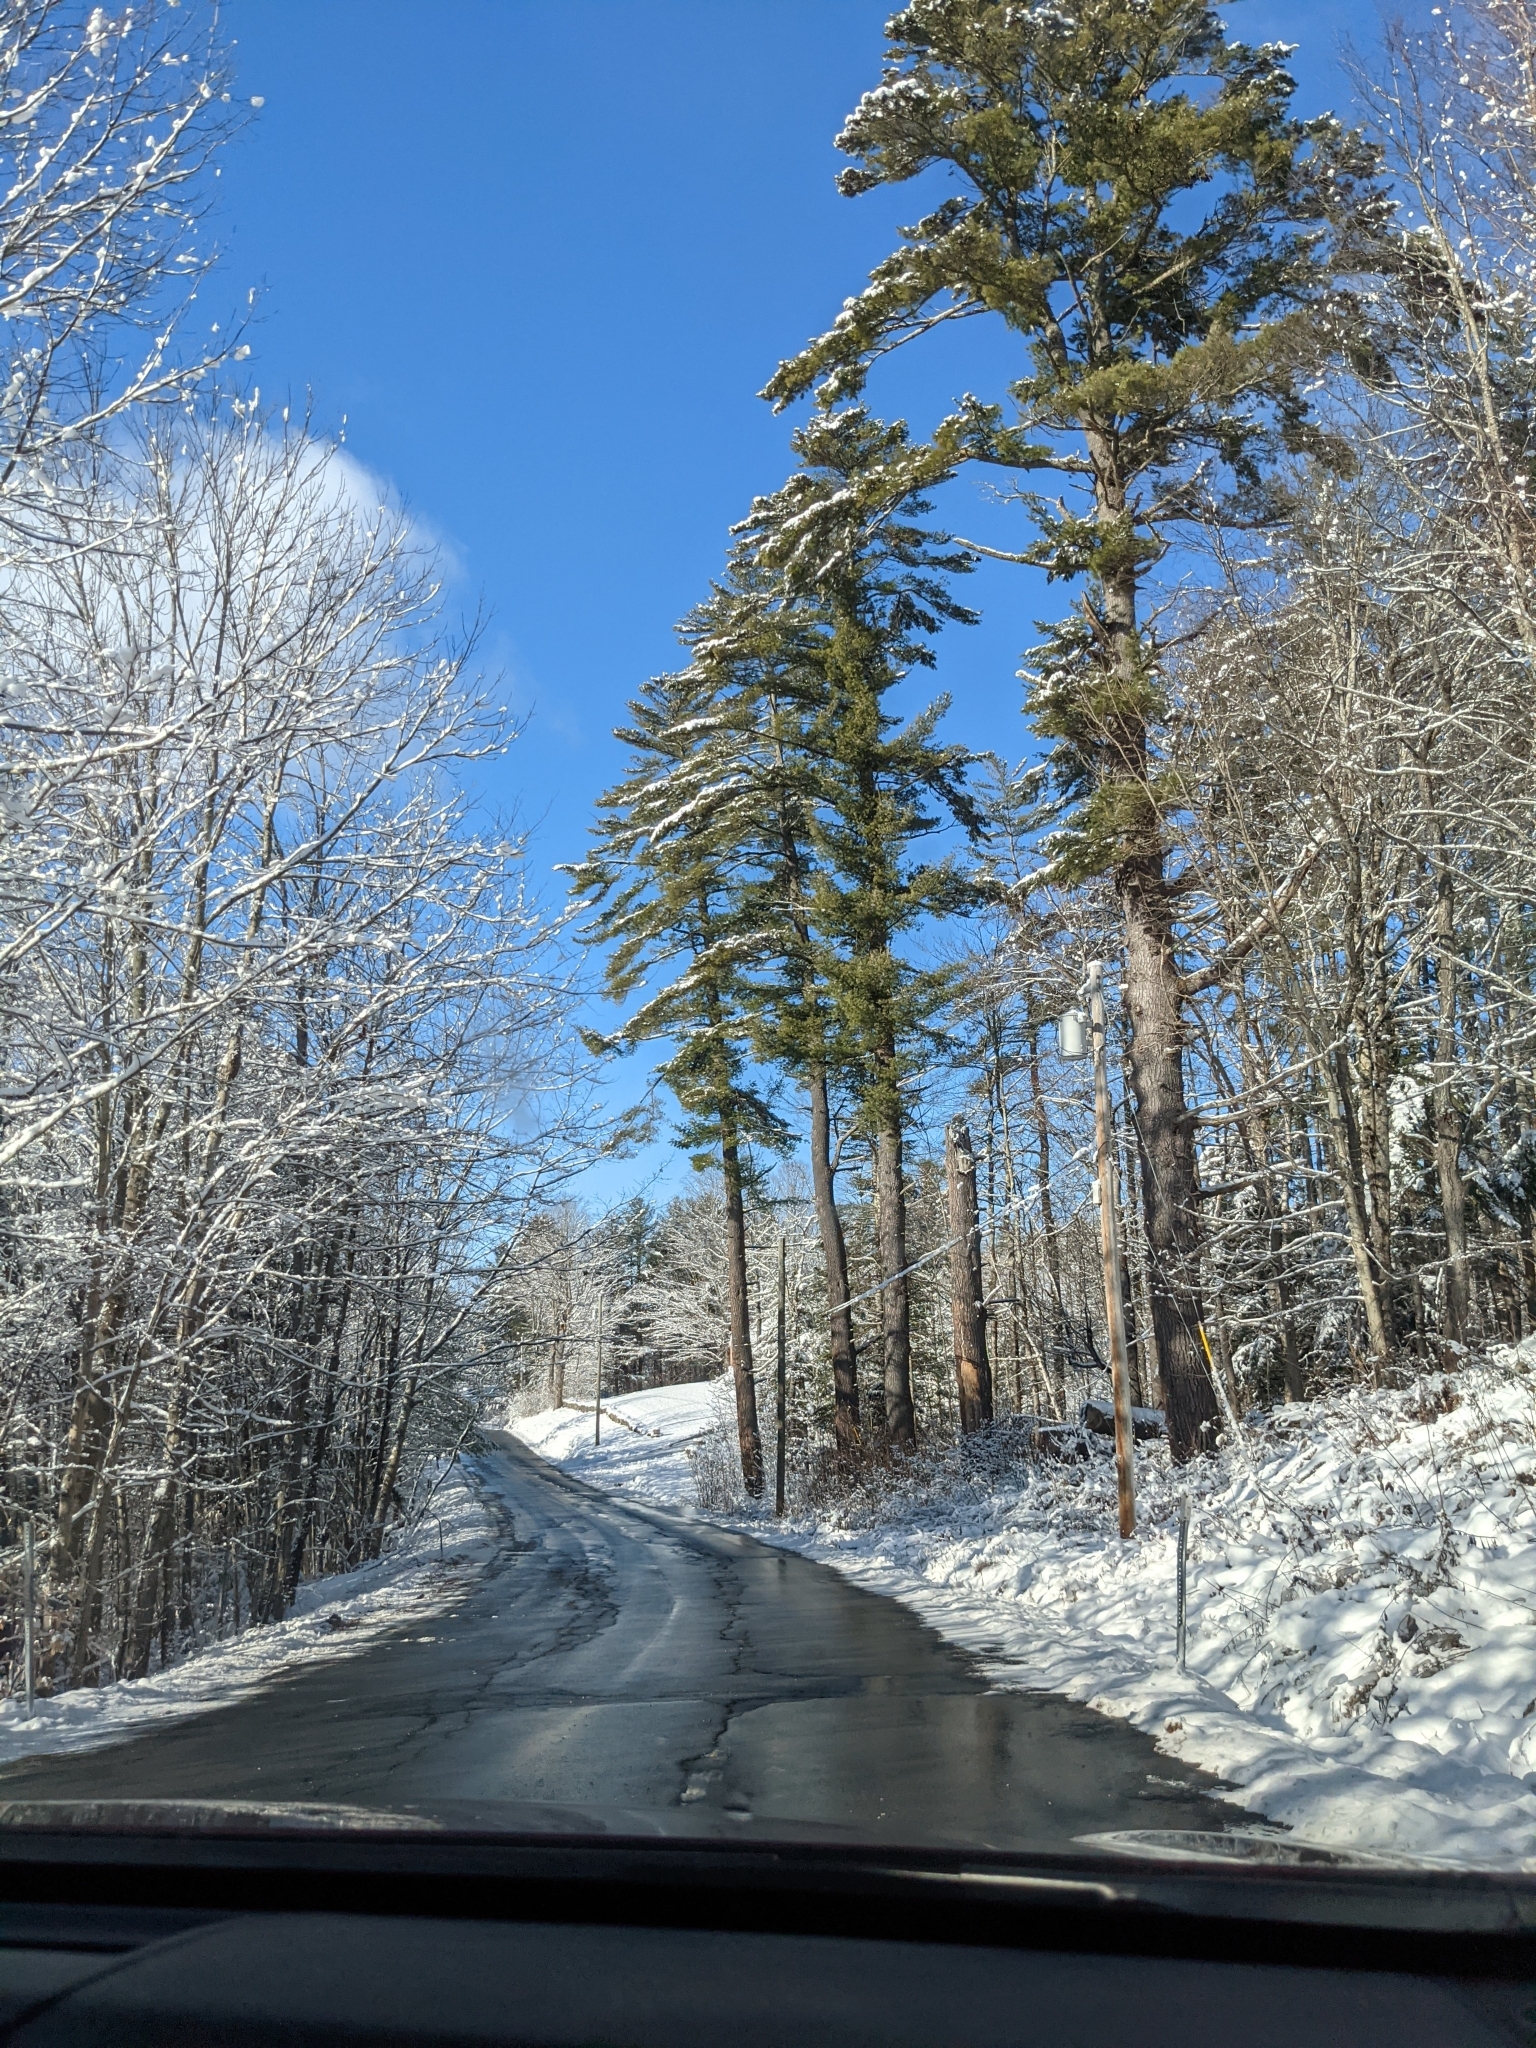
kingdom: Plantae
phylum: Tracheophyta
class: Pinopsida
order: Pinales
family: Pinaceae
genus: Pinus
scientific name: Pinus strobus
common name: Weymouth pine
